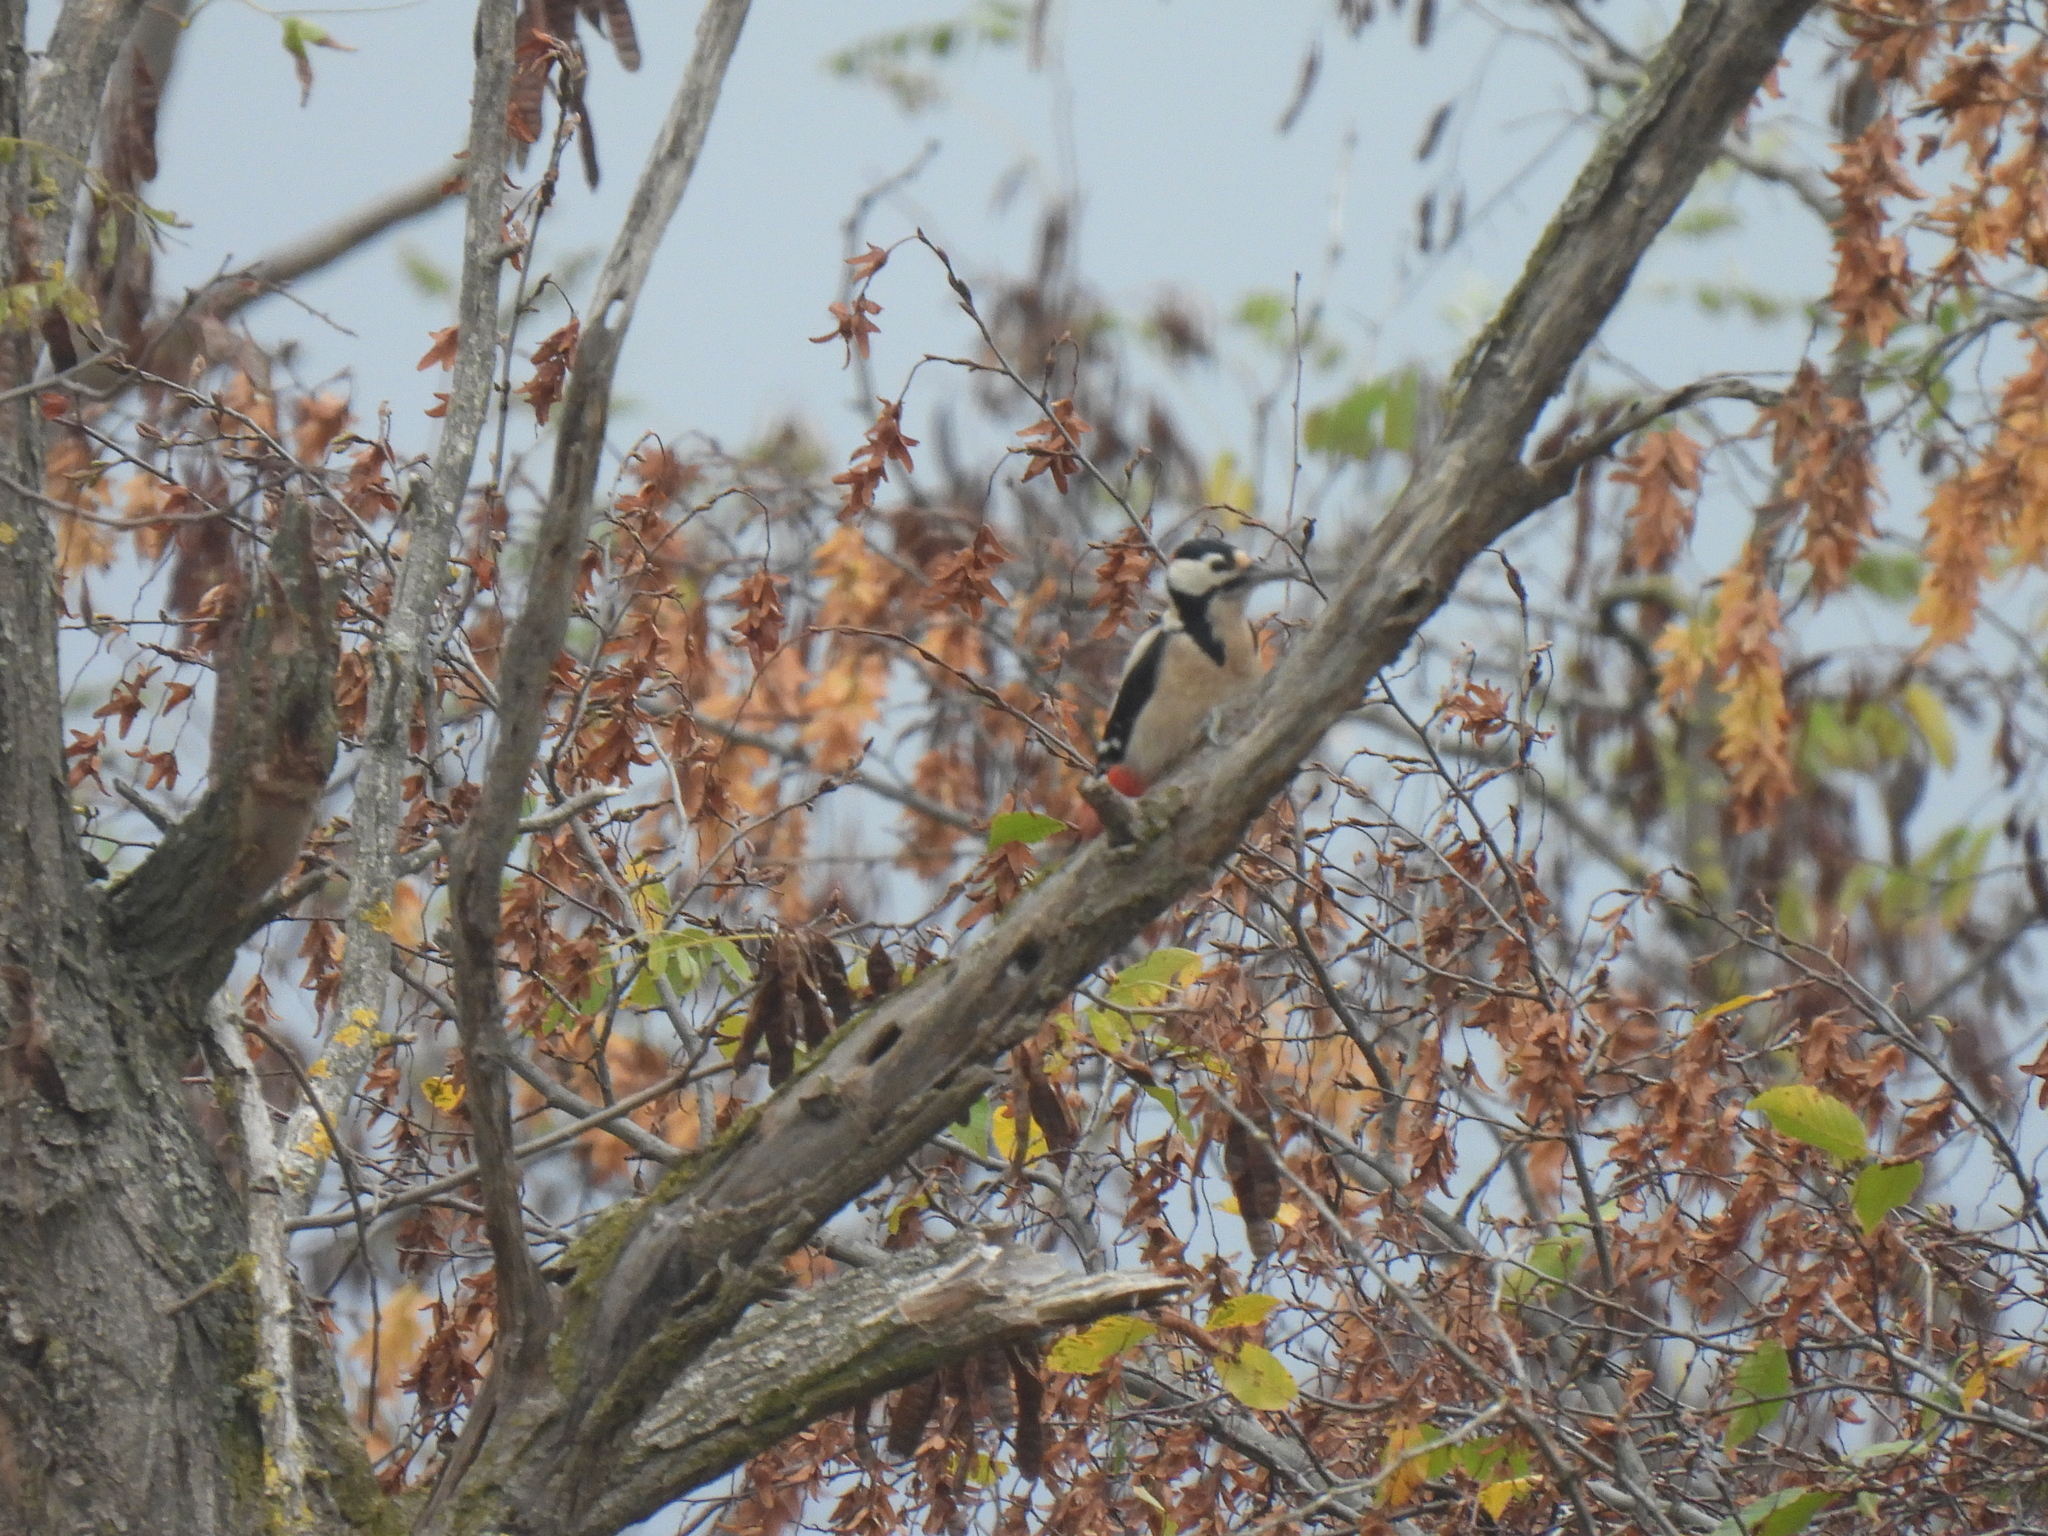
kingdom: Animalia
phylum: Chordata
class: Aves
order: Piciformes
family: Picidae
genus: Dendrocopos
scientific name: Dendrocopos major
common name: Great spotted woodpecker
